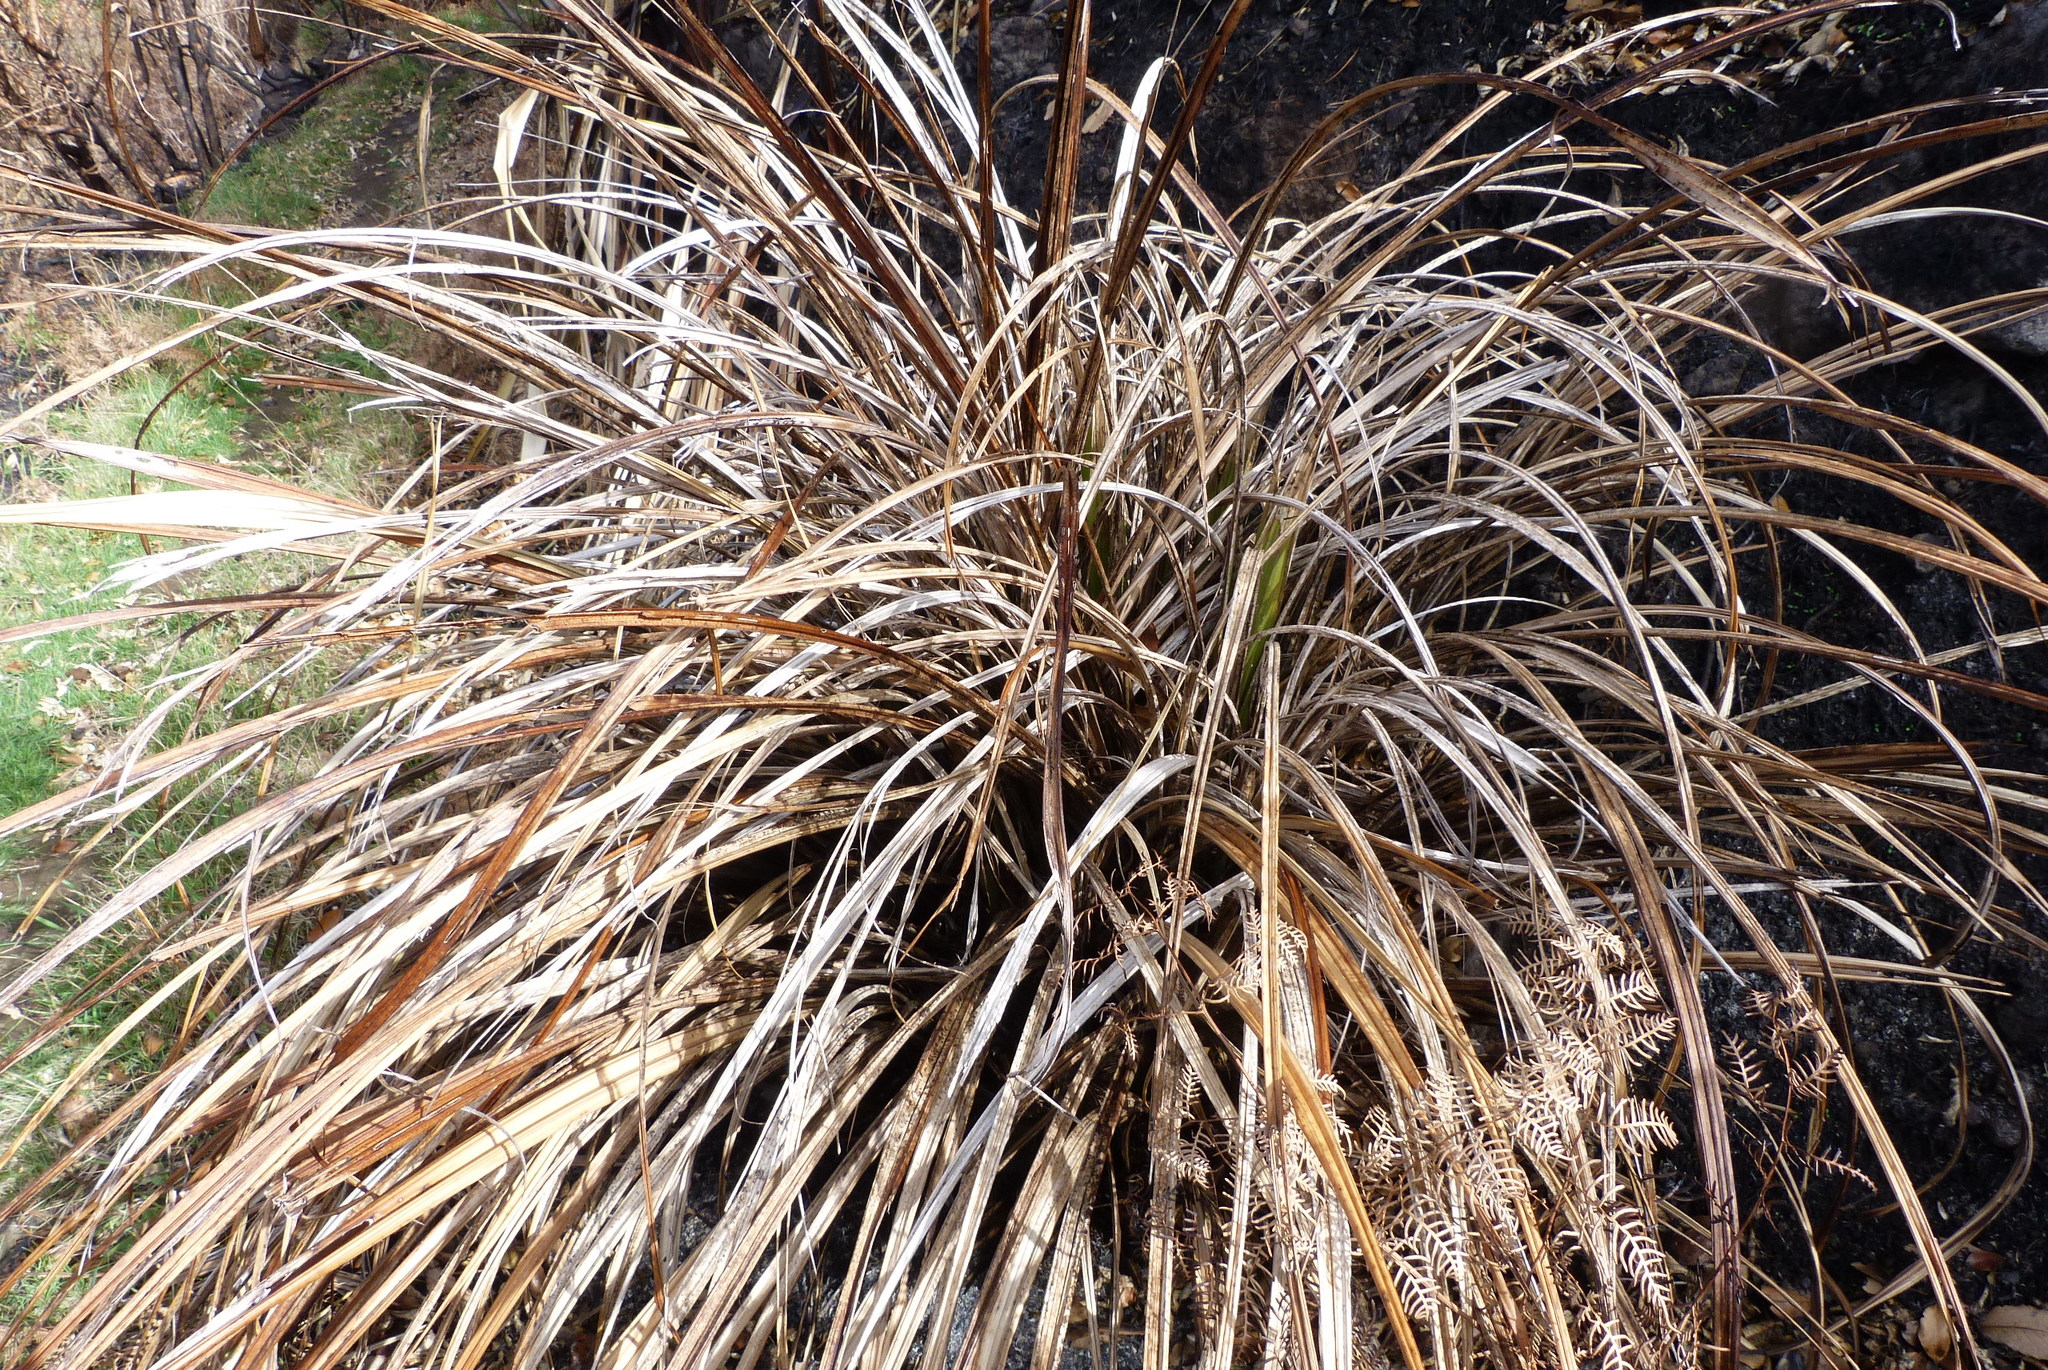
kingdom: Plantae
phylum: Tracheophyta
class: Liliopsida
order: Asparagales
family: Asteliaceae
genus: Astelia
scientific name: Astelia fragrans
